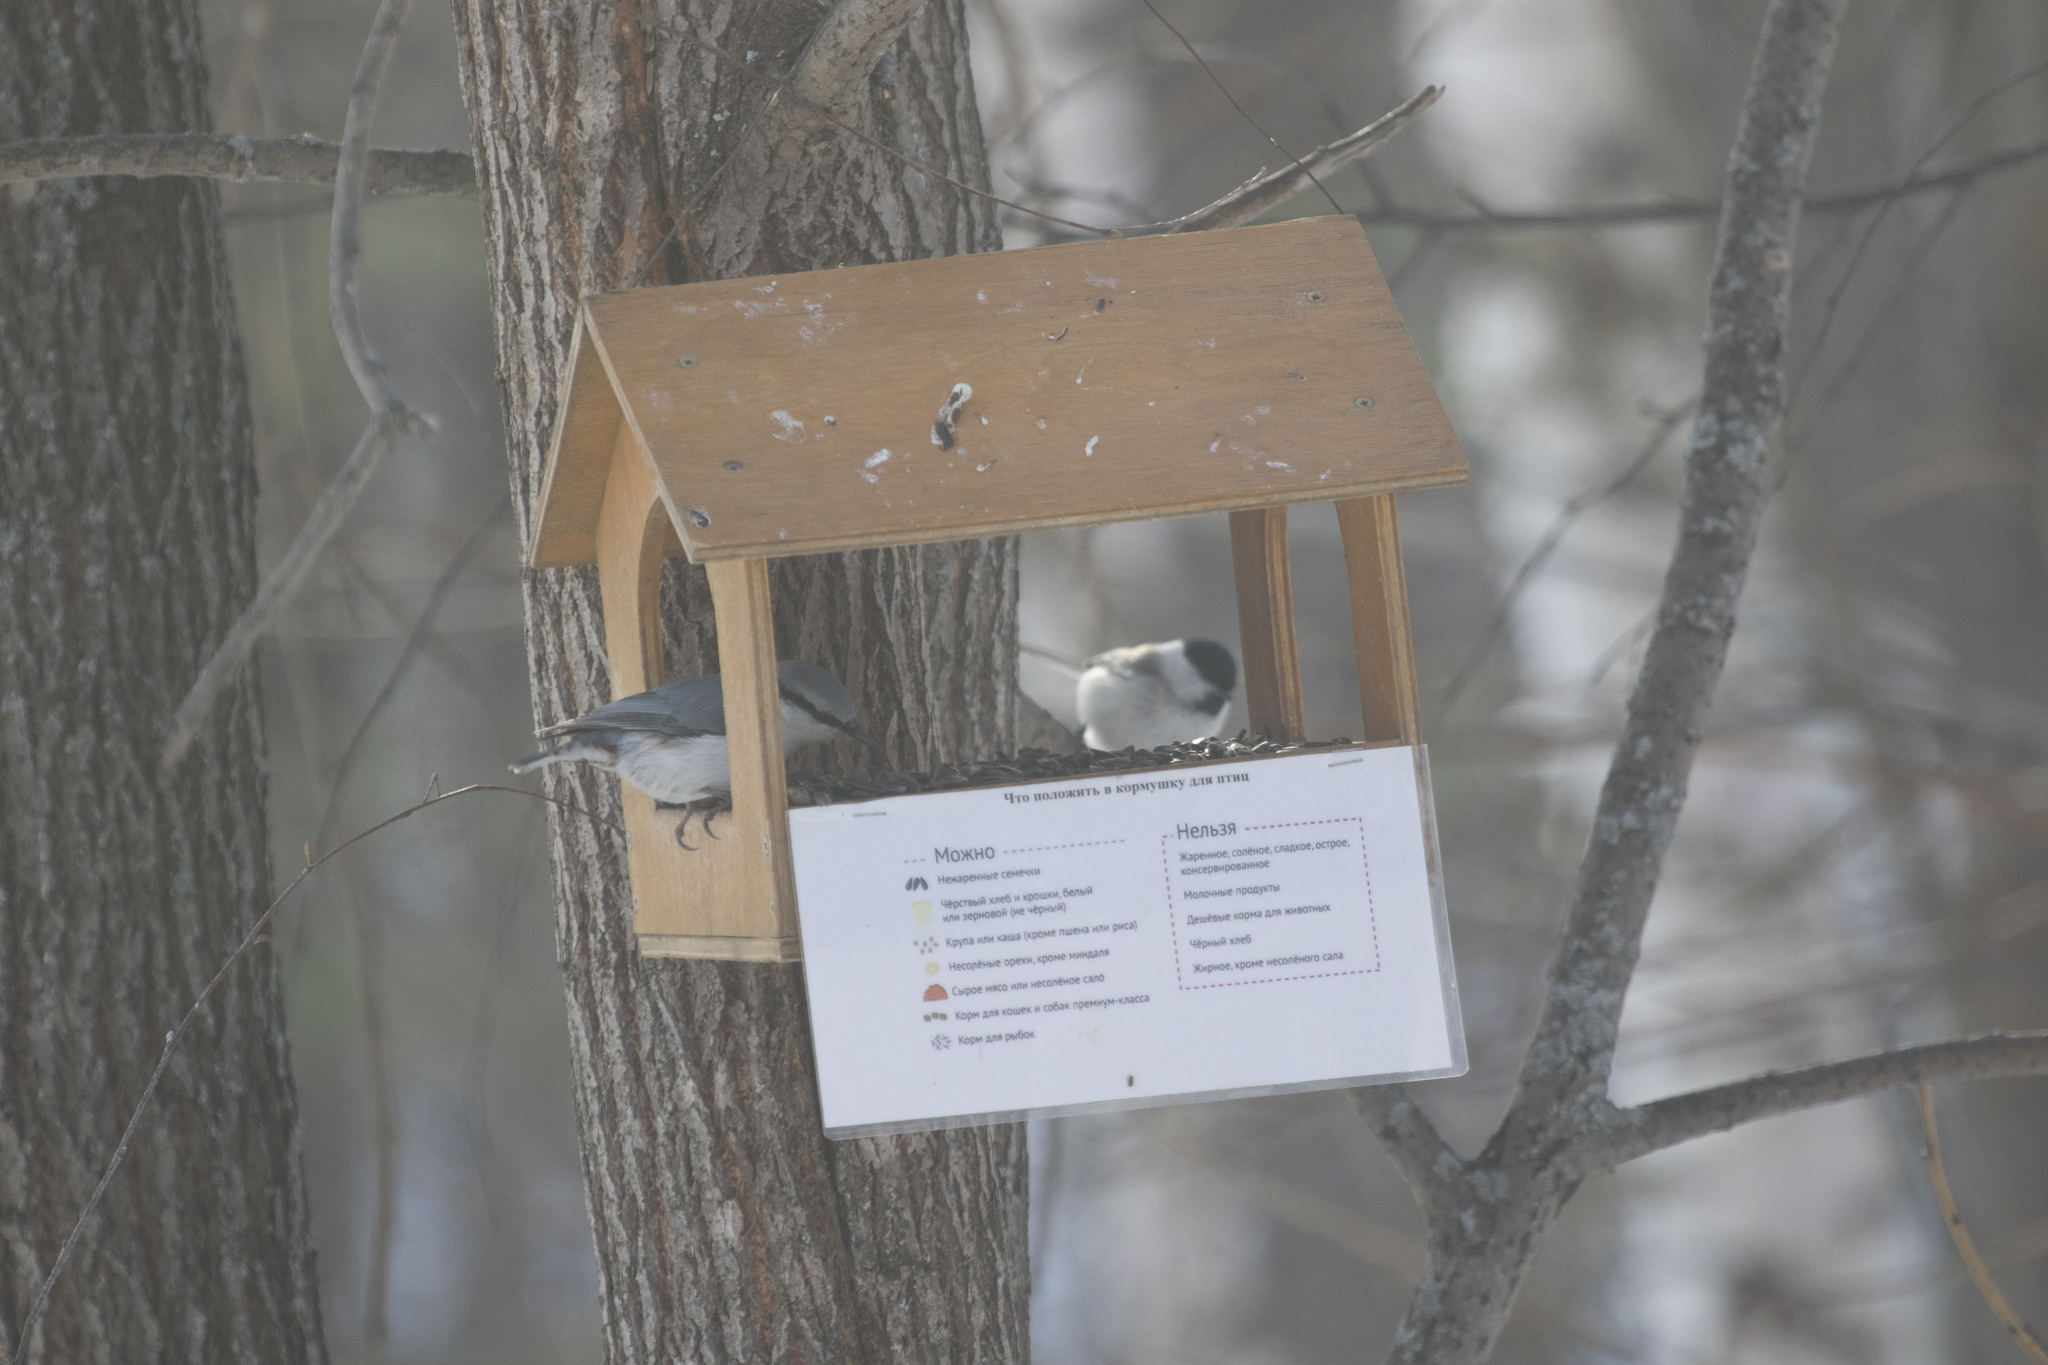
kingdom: Animalia
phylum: Chordata
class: Aves
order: Passeriformes
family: Sittidae
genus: Sitta
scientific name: Sitta europaea
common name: Eurasian nuthatch
